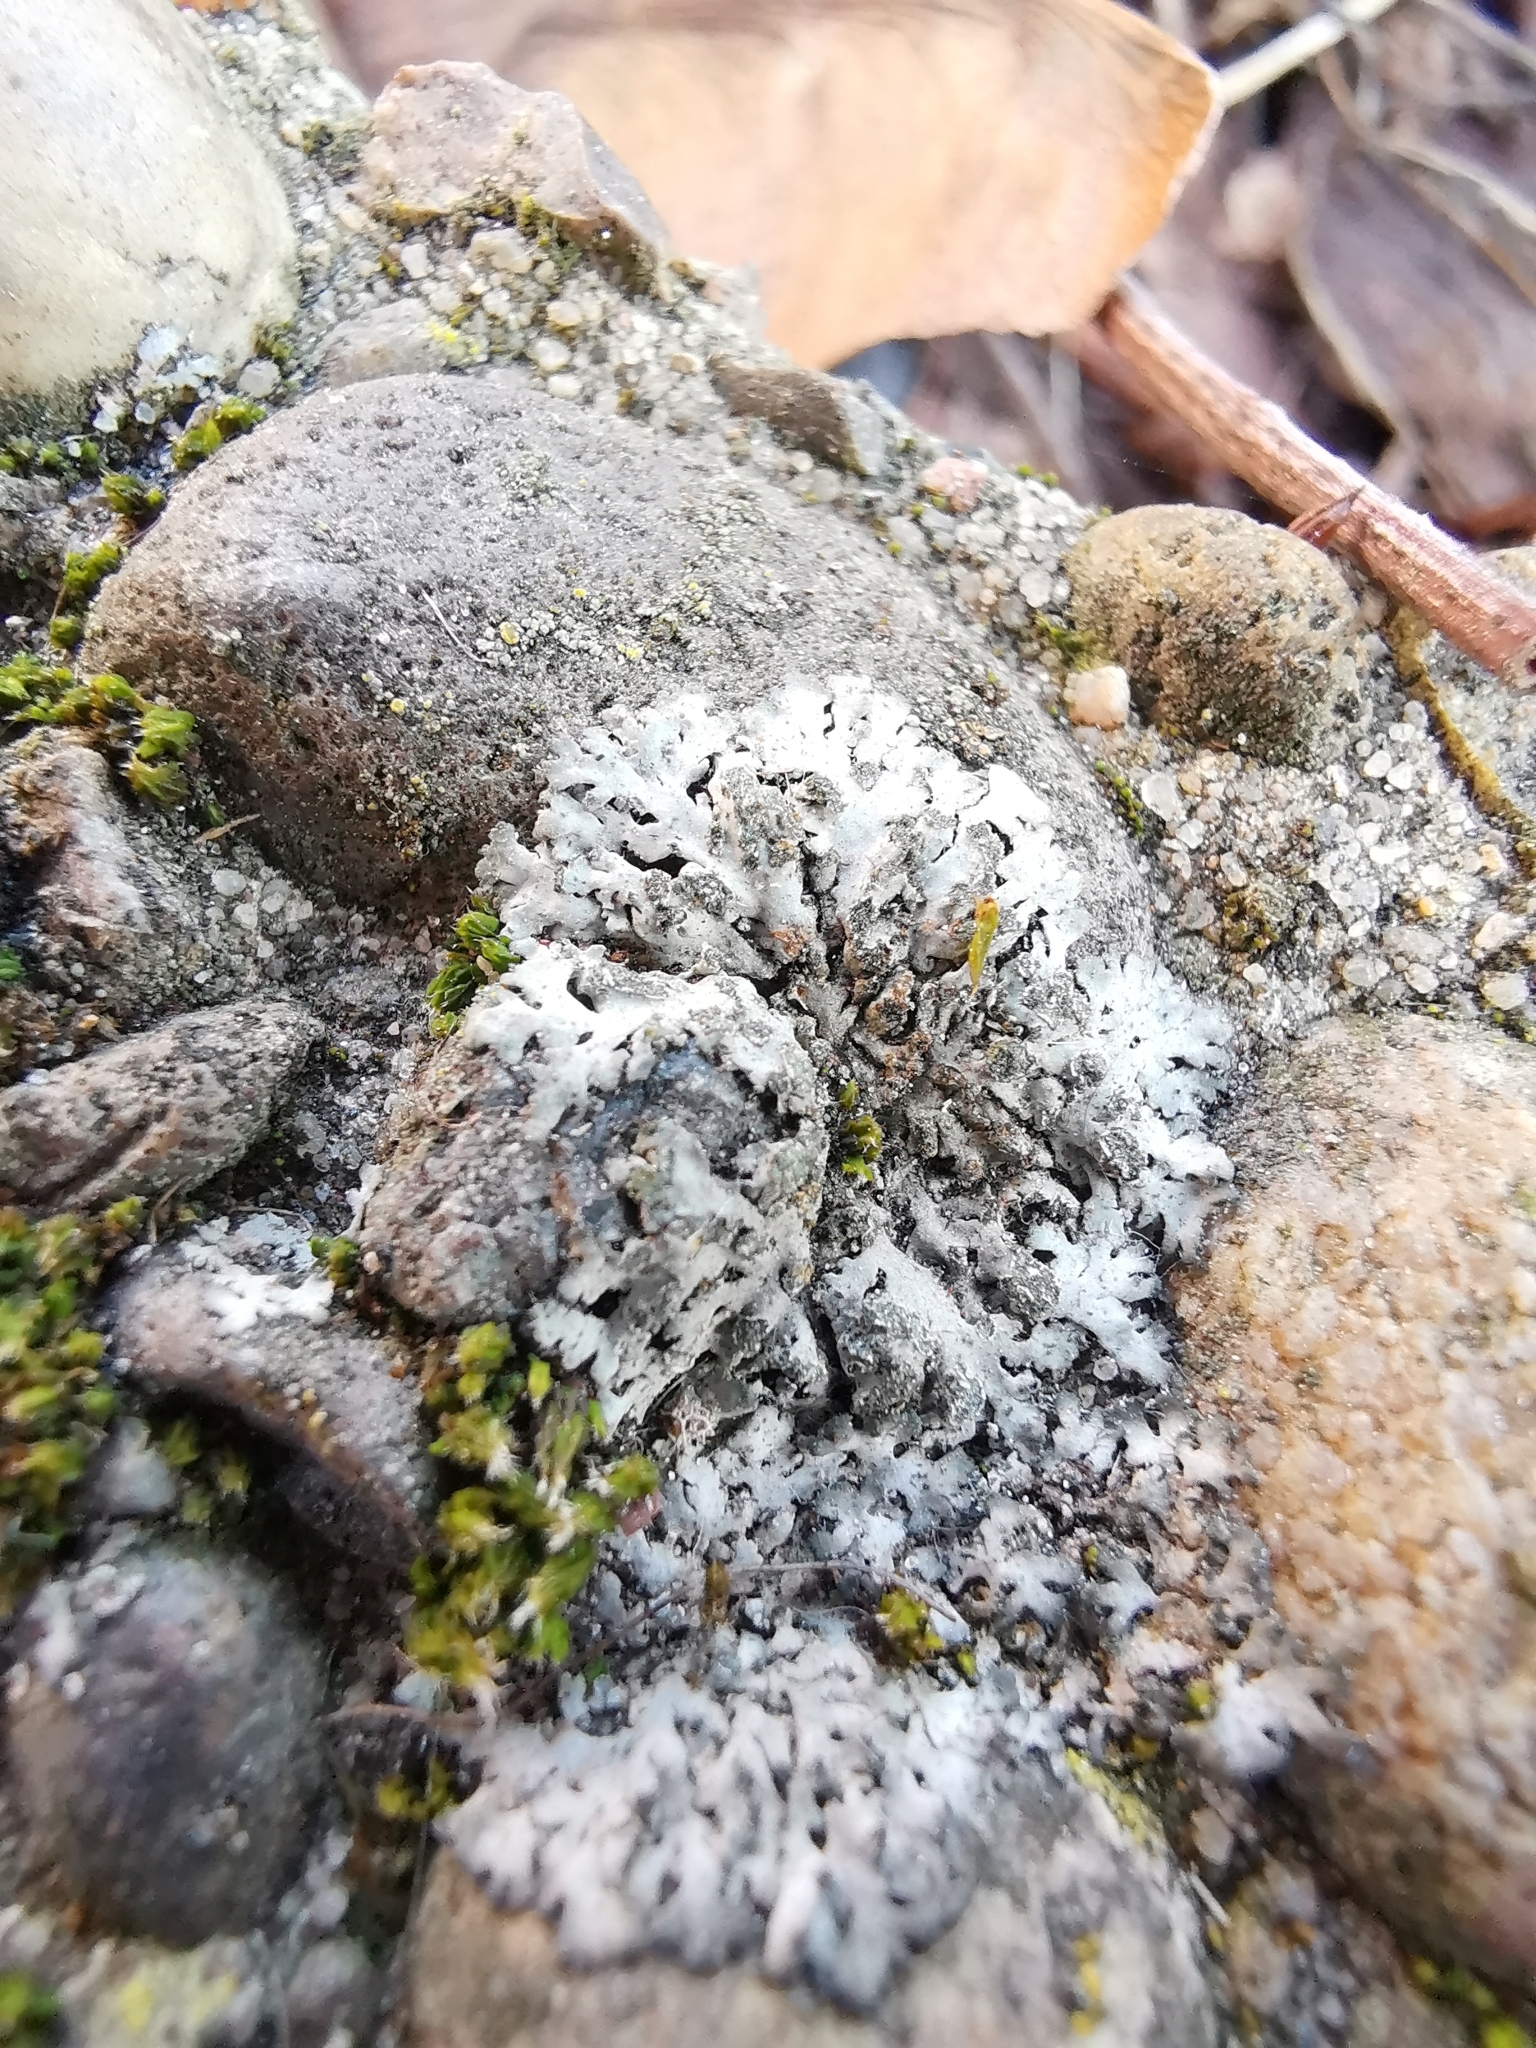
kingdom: Fungi
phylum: Ascomycota
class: Lecanoromycetes
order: Caliciales
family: Physciaceae
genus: Phaeophyscia
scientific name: Phaeophyscia orbicularis
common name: Mealy shadow lichen
